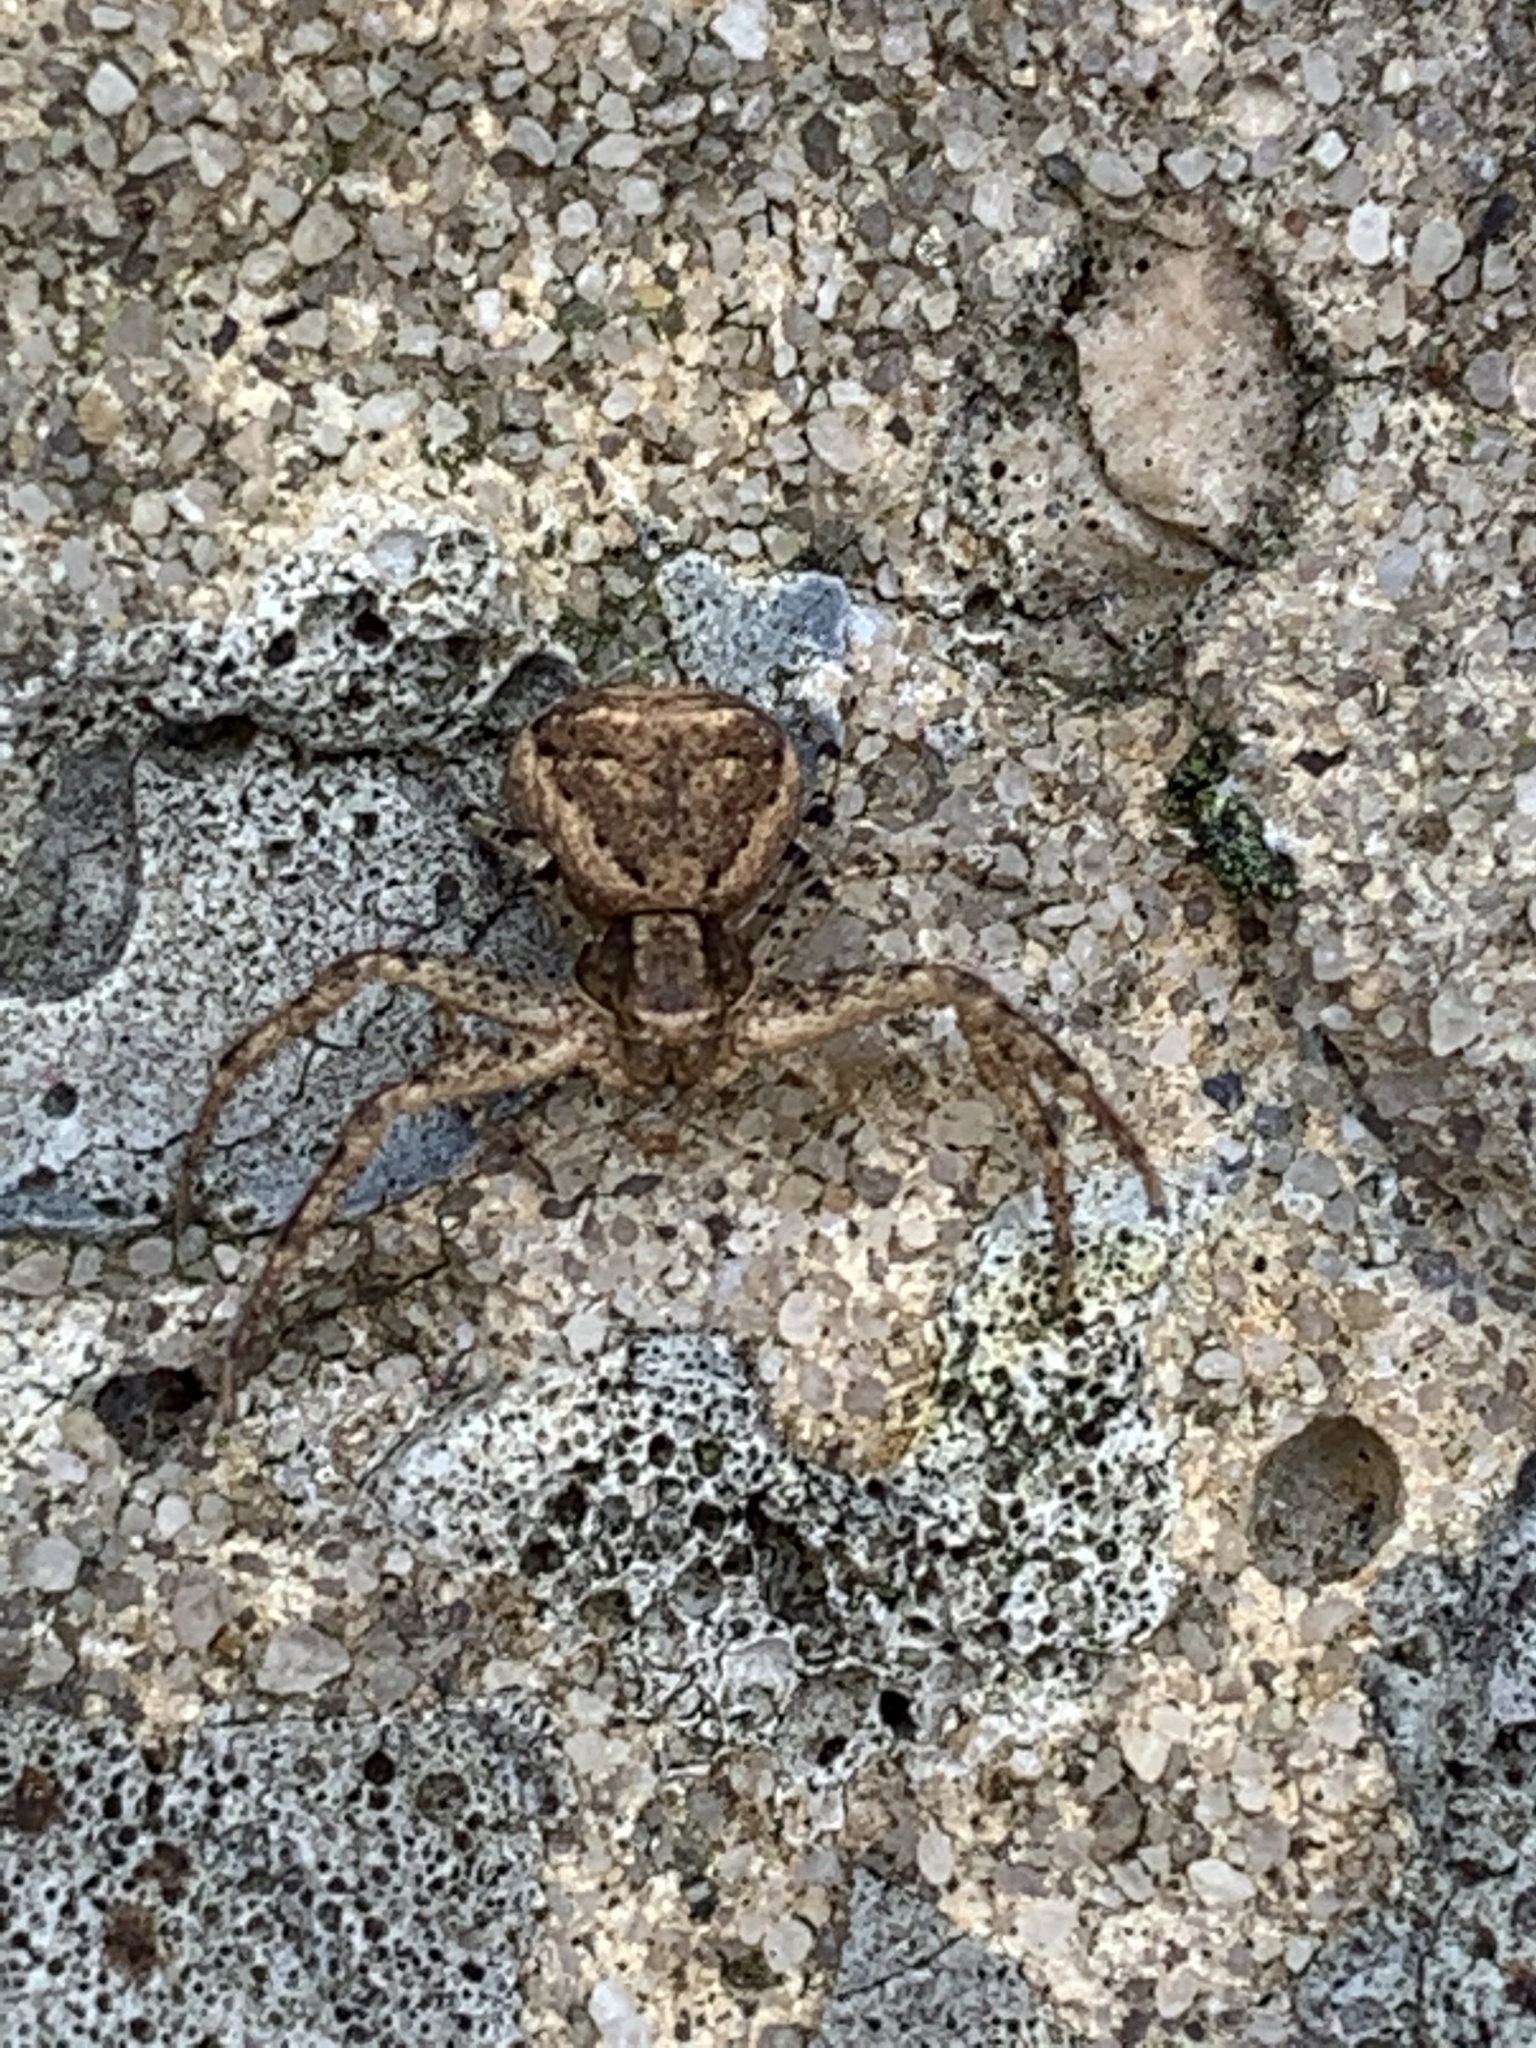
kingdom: Animalia
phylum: Arthropoda
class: Arachnida
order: Araneae
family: Thomisidae
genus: Xysticus
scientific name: Xysticus
